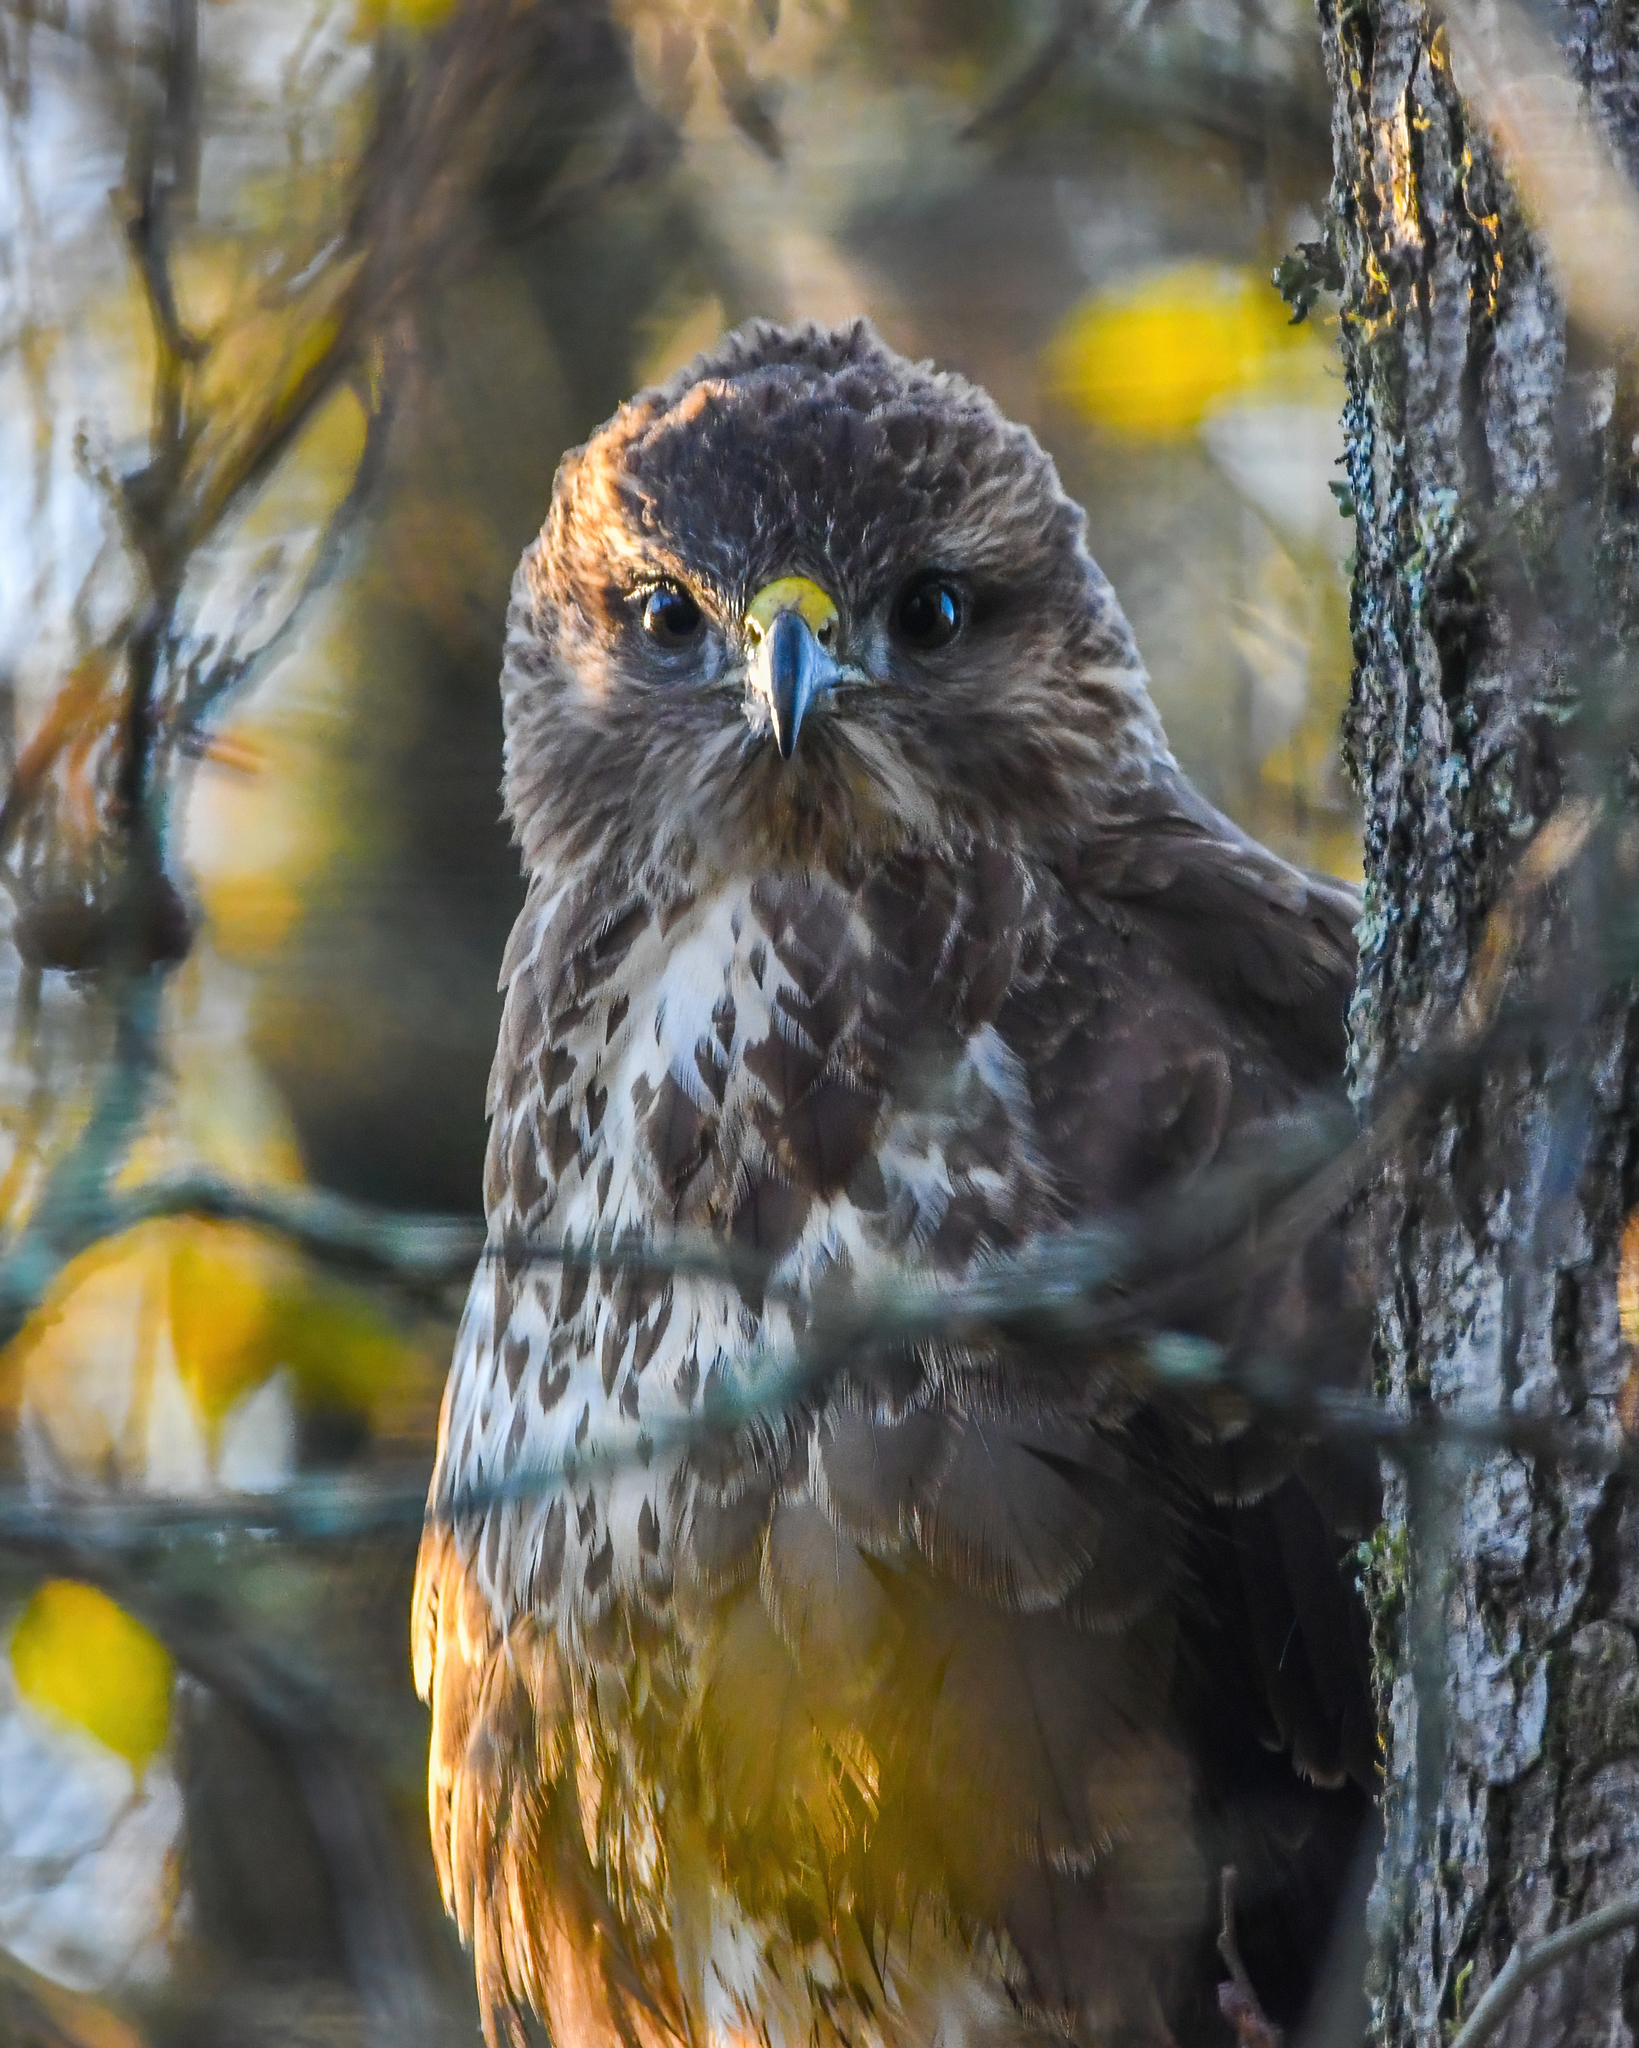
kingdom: Animalia
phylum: Chordata
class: Aves
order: Accipitriformes
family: Accipitridae
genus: Buteo
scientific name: Buteo buteo
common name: Common buzzard
